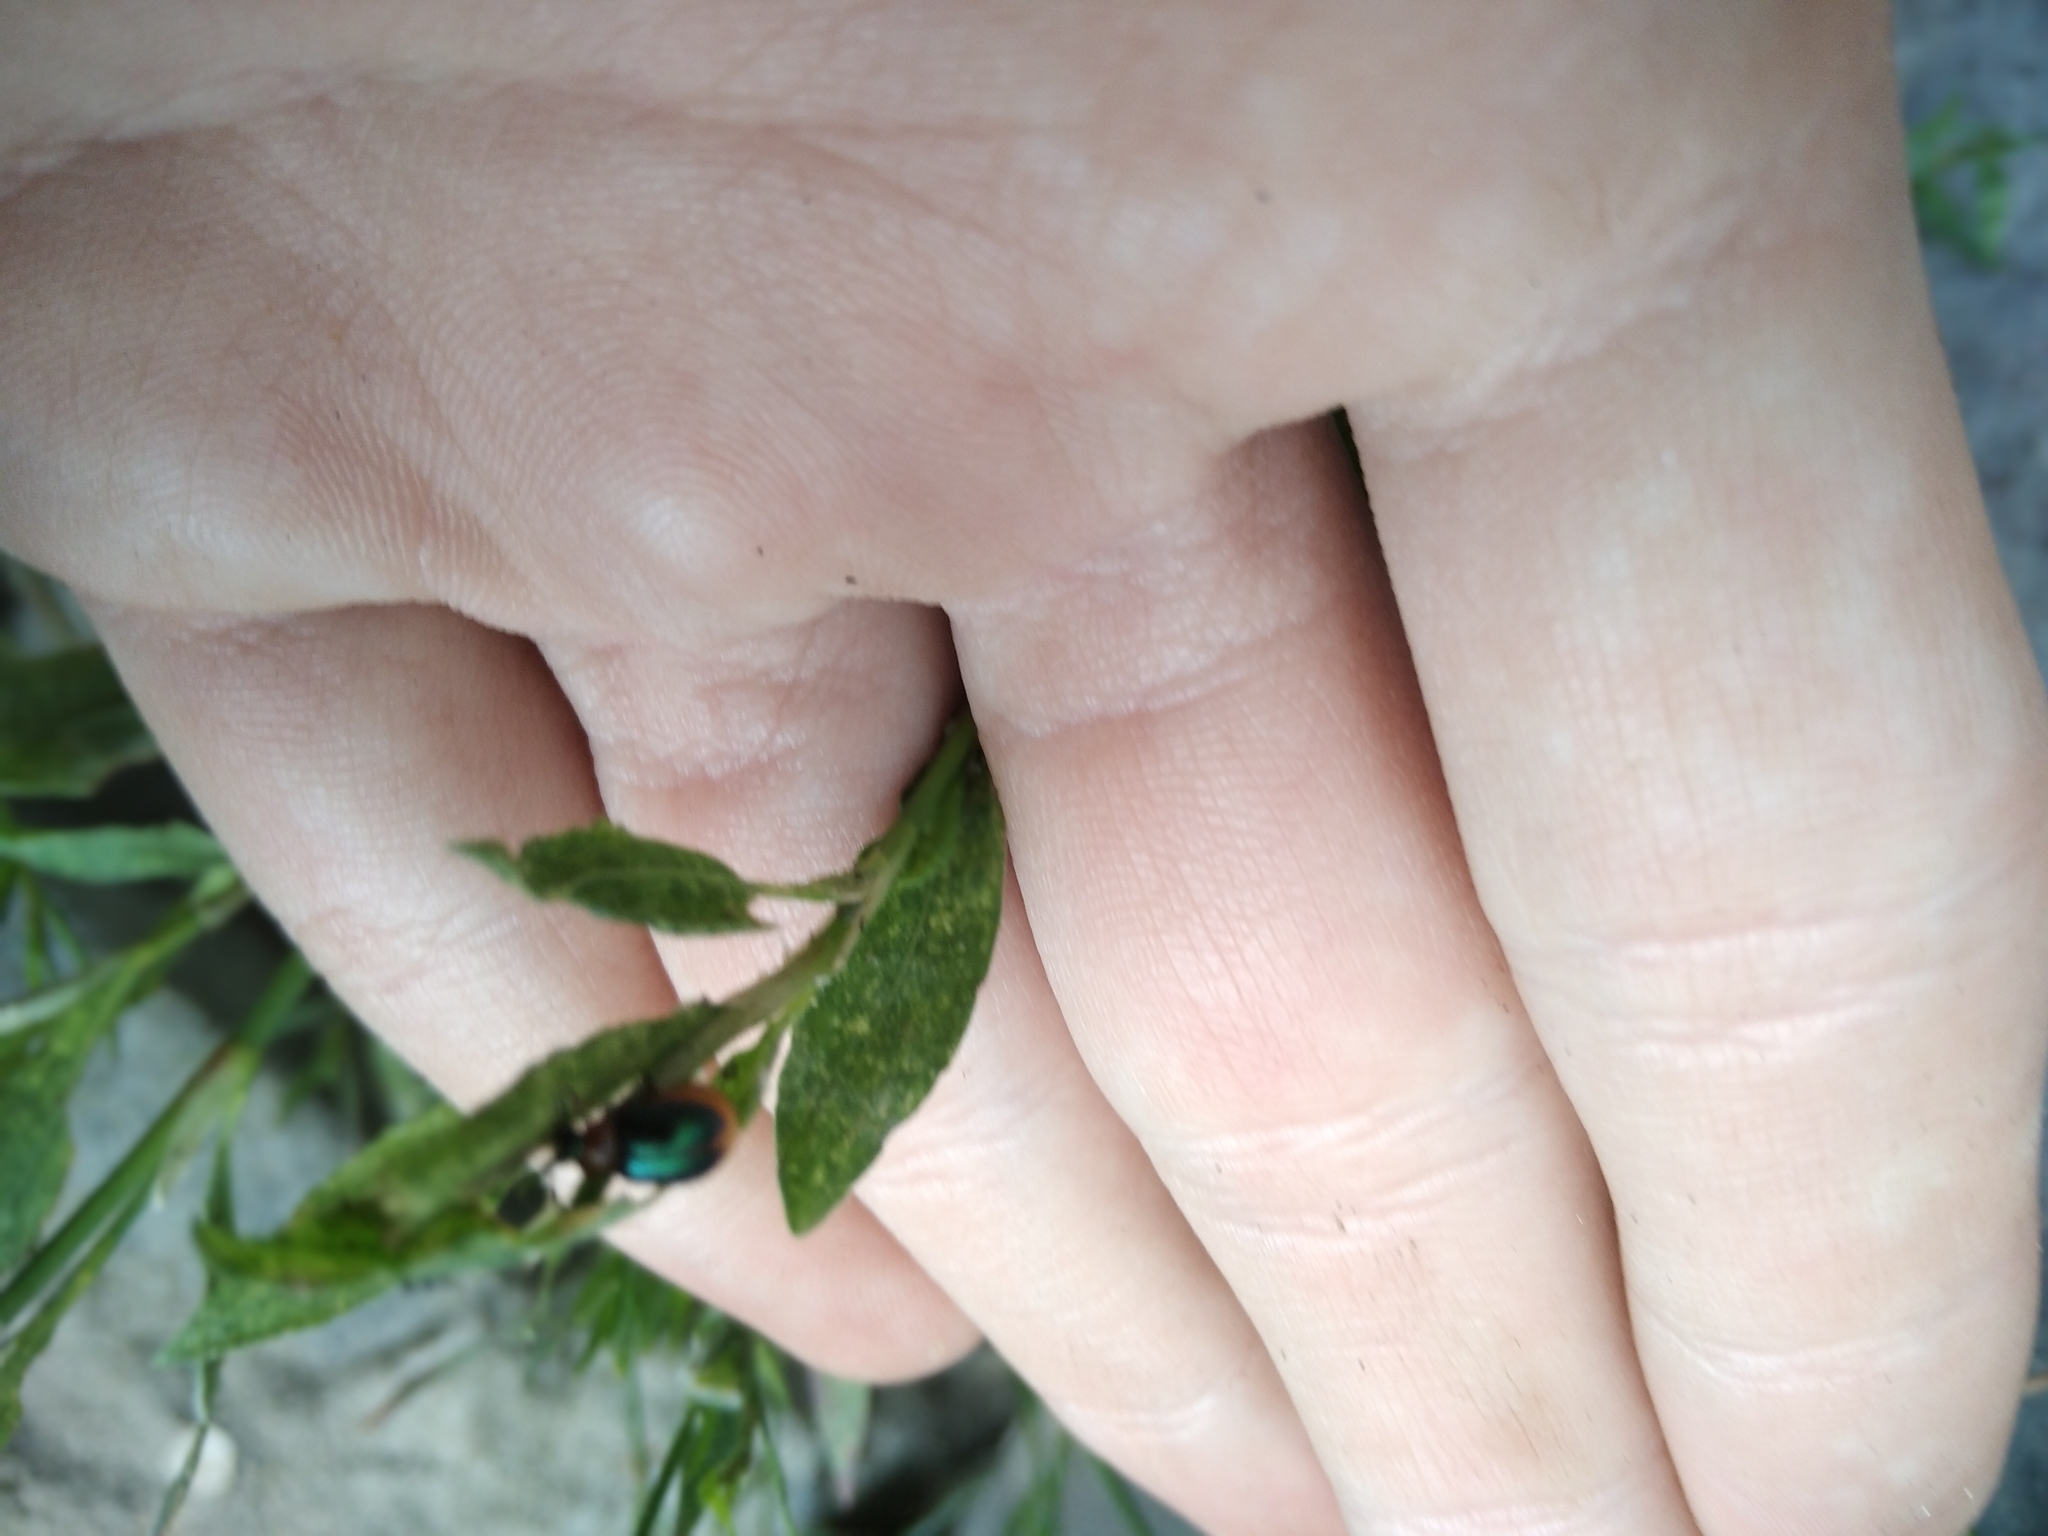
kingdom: Animalia
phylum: Arthropoda
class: Insecta
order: Coleoptera
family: Chrysomelidae
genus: Gastrophysa
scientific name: Gastrophysa polygoni
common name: Knotweed leaf beetle
